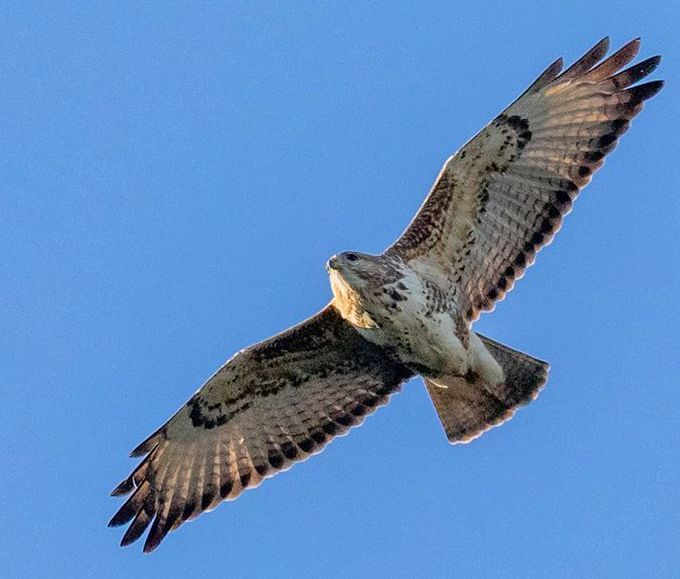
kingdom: Animalia
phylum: Chordata
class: Aves
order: Accipitriformes
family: Accipitridae
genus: Buteo
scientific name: Buteo trizonatus
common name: Forest buzzard
